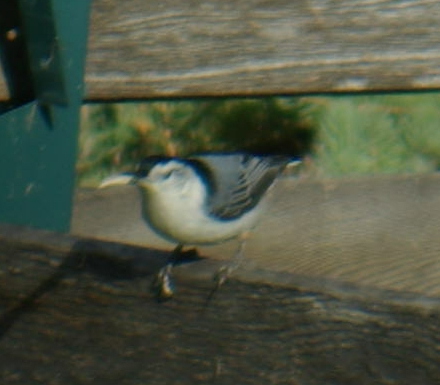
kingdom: Animalia
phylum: Chordata
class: Aves
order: Passeriformes
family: Sittidae
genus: Sitta
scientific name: Sitta carolinensis
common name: White-breasted nuthatch
